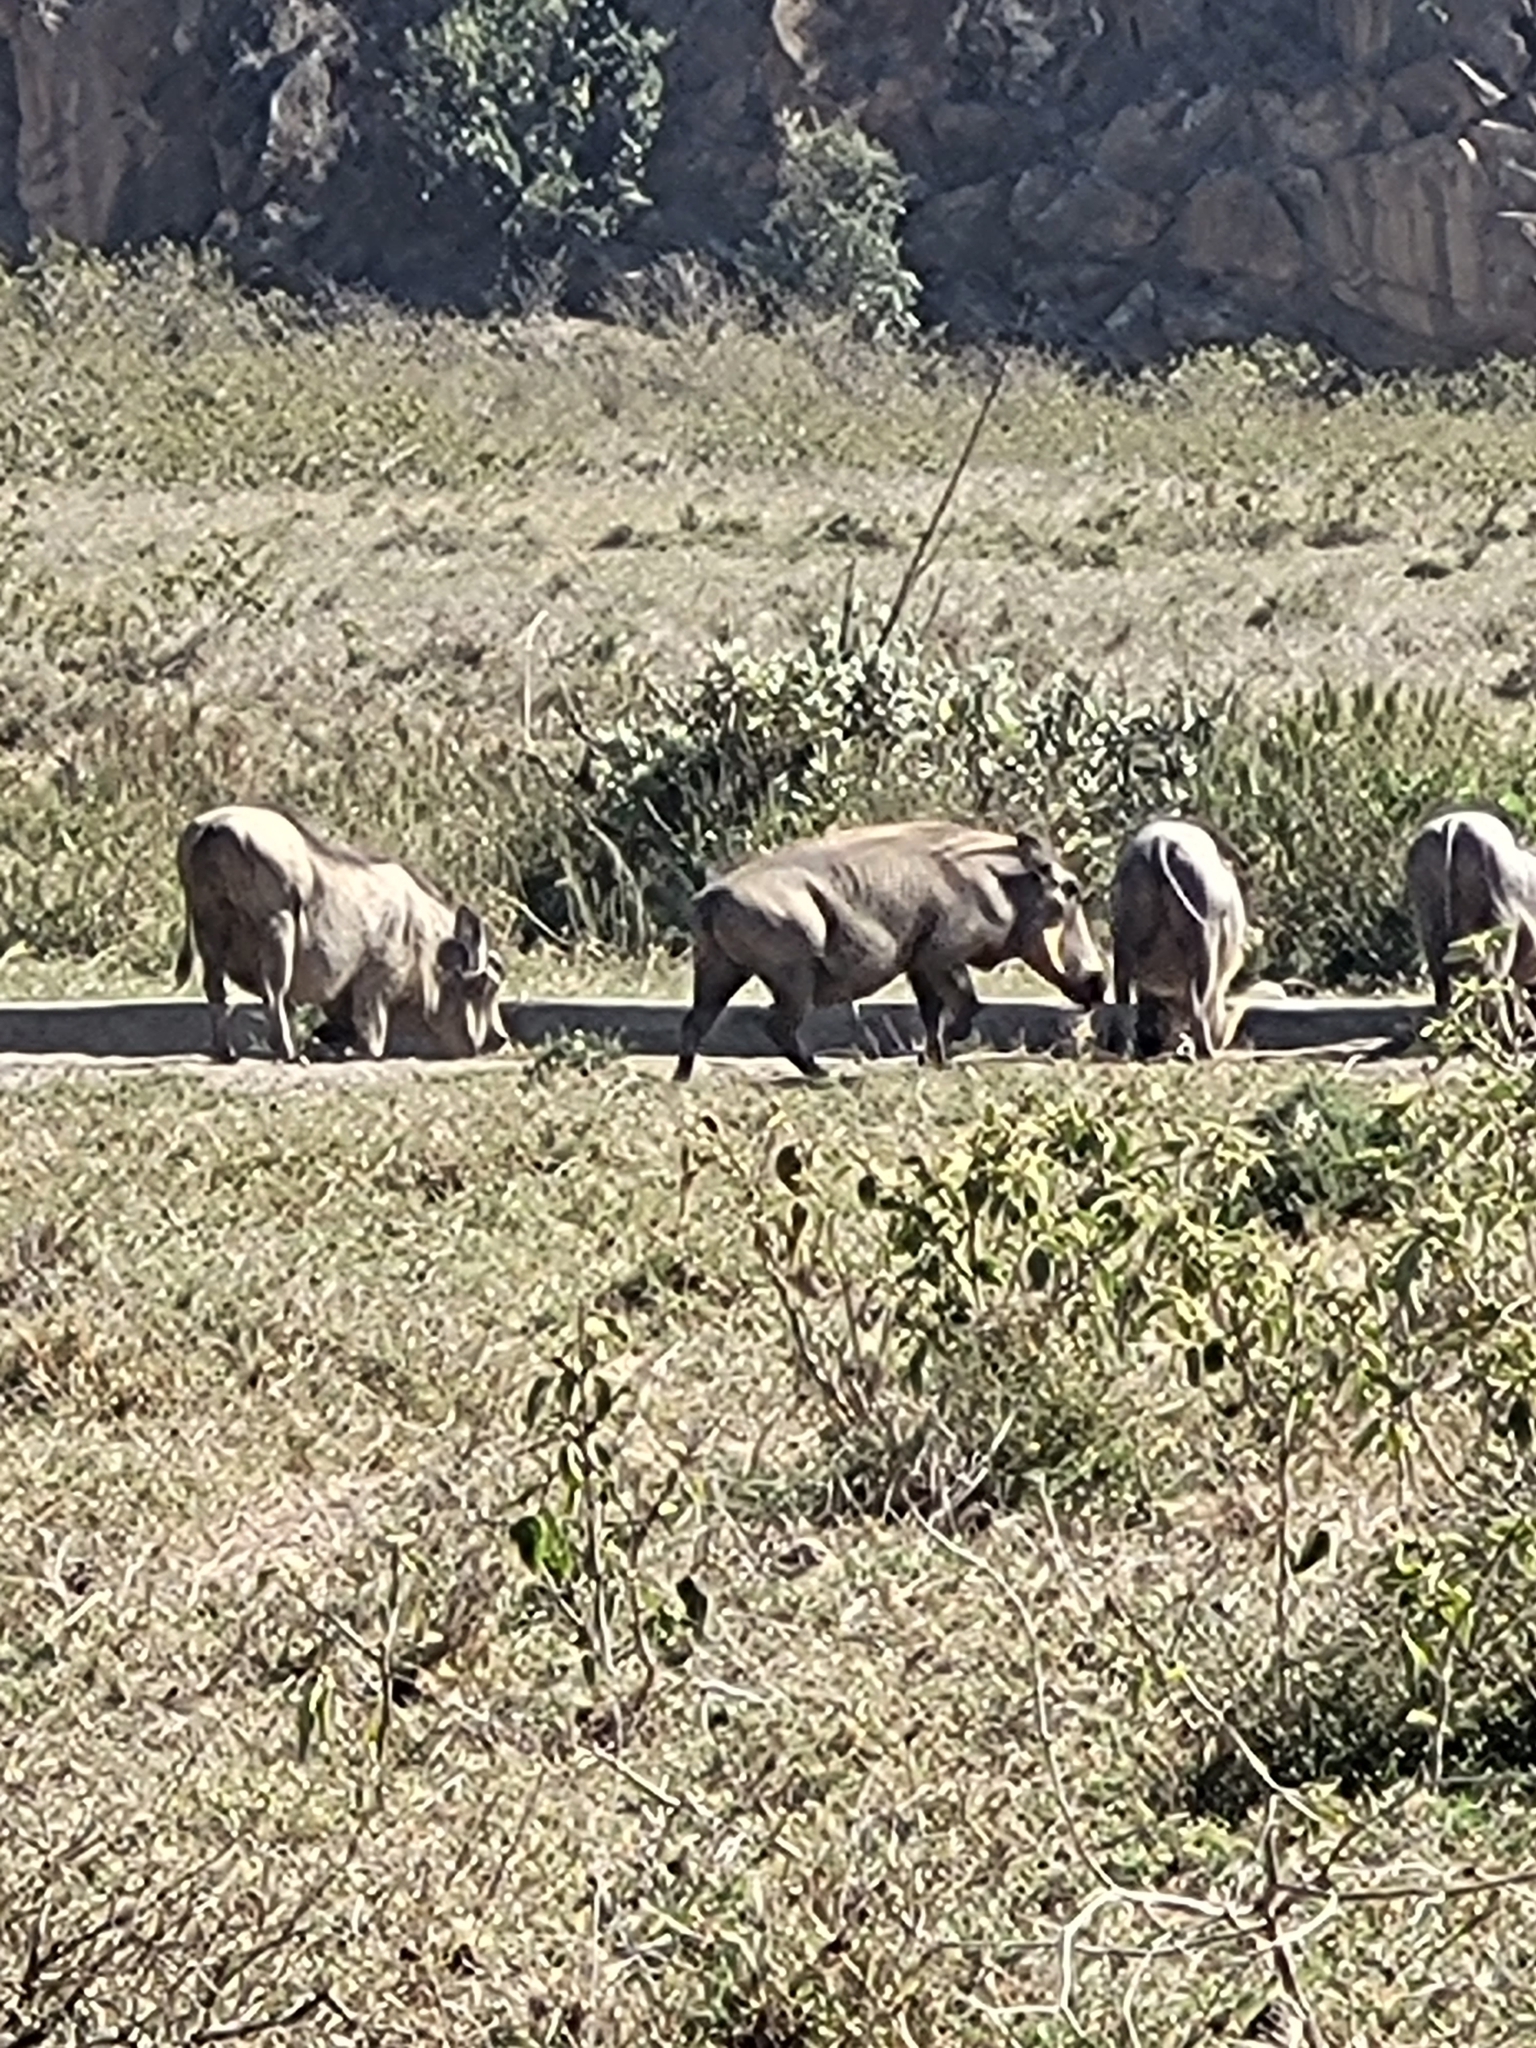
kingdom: Animalia
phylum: Chordata
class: Mammalia
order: Artiodactyla
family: Suidae
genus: Phacochoerus
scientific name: Phacochoerus africanus
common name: Common warthog
